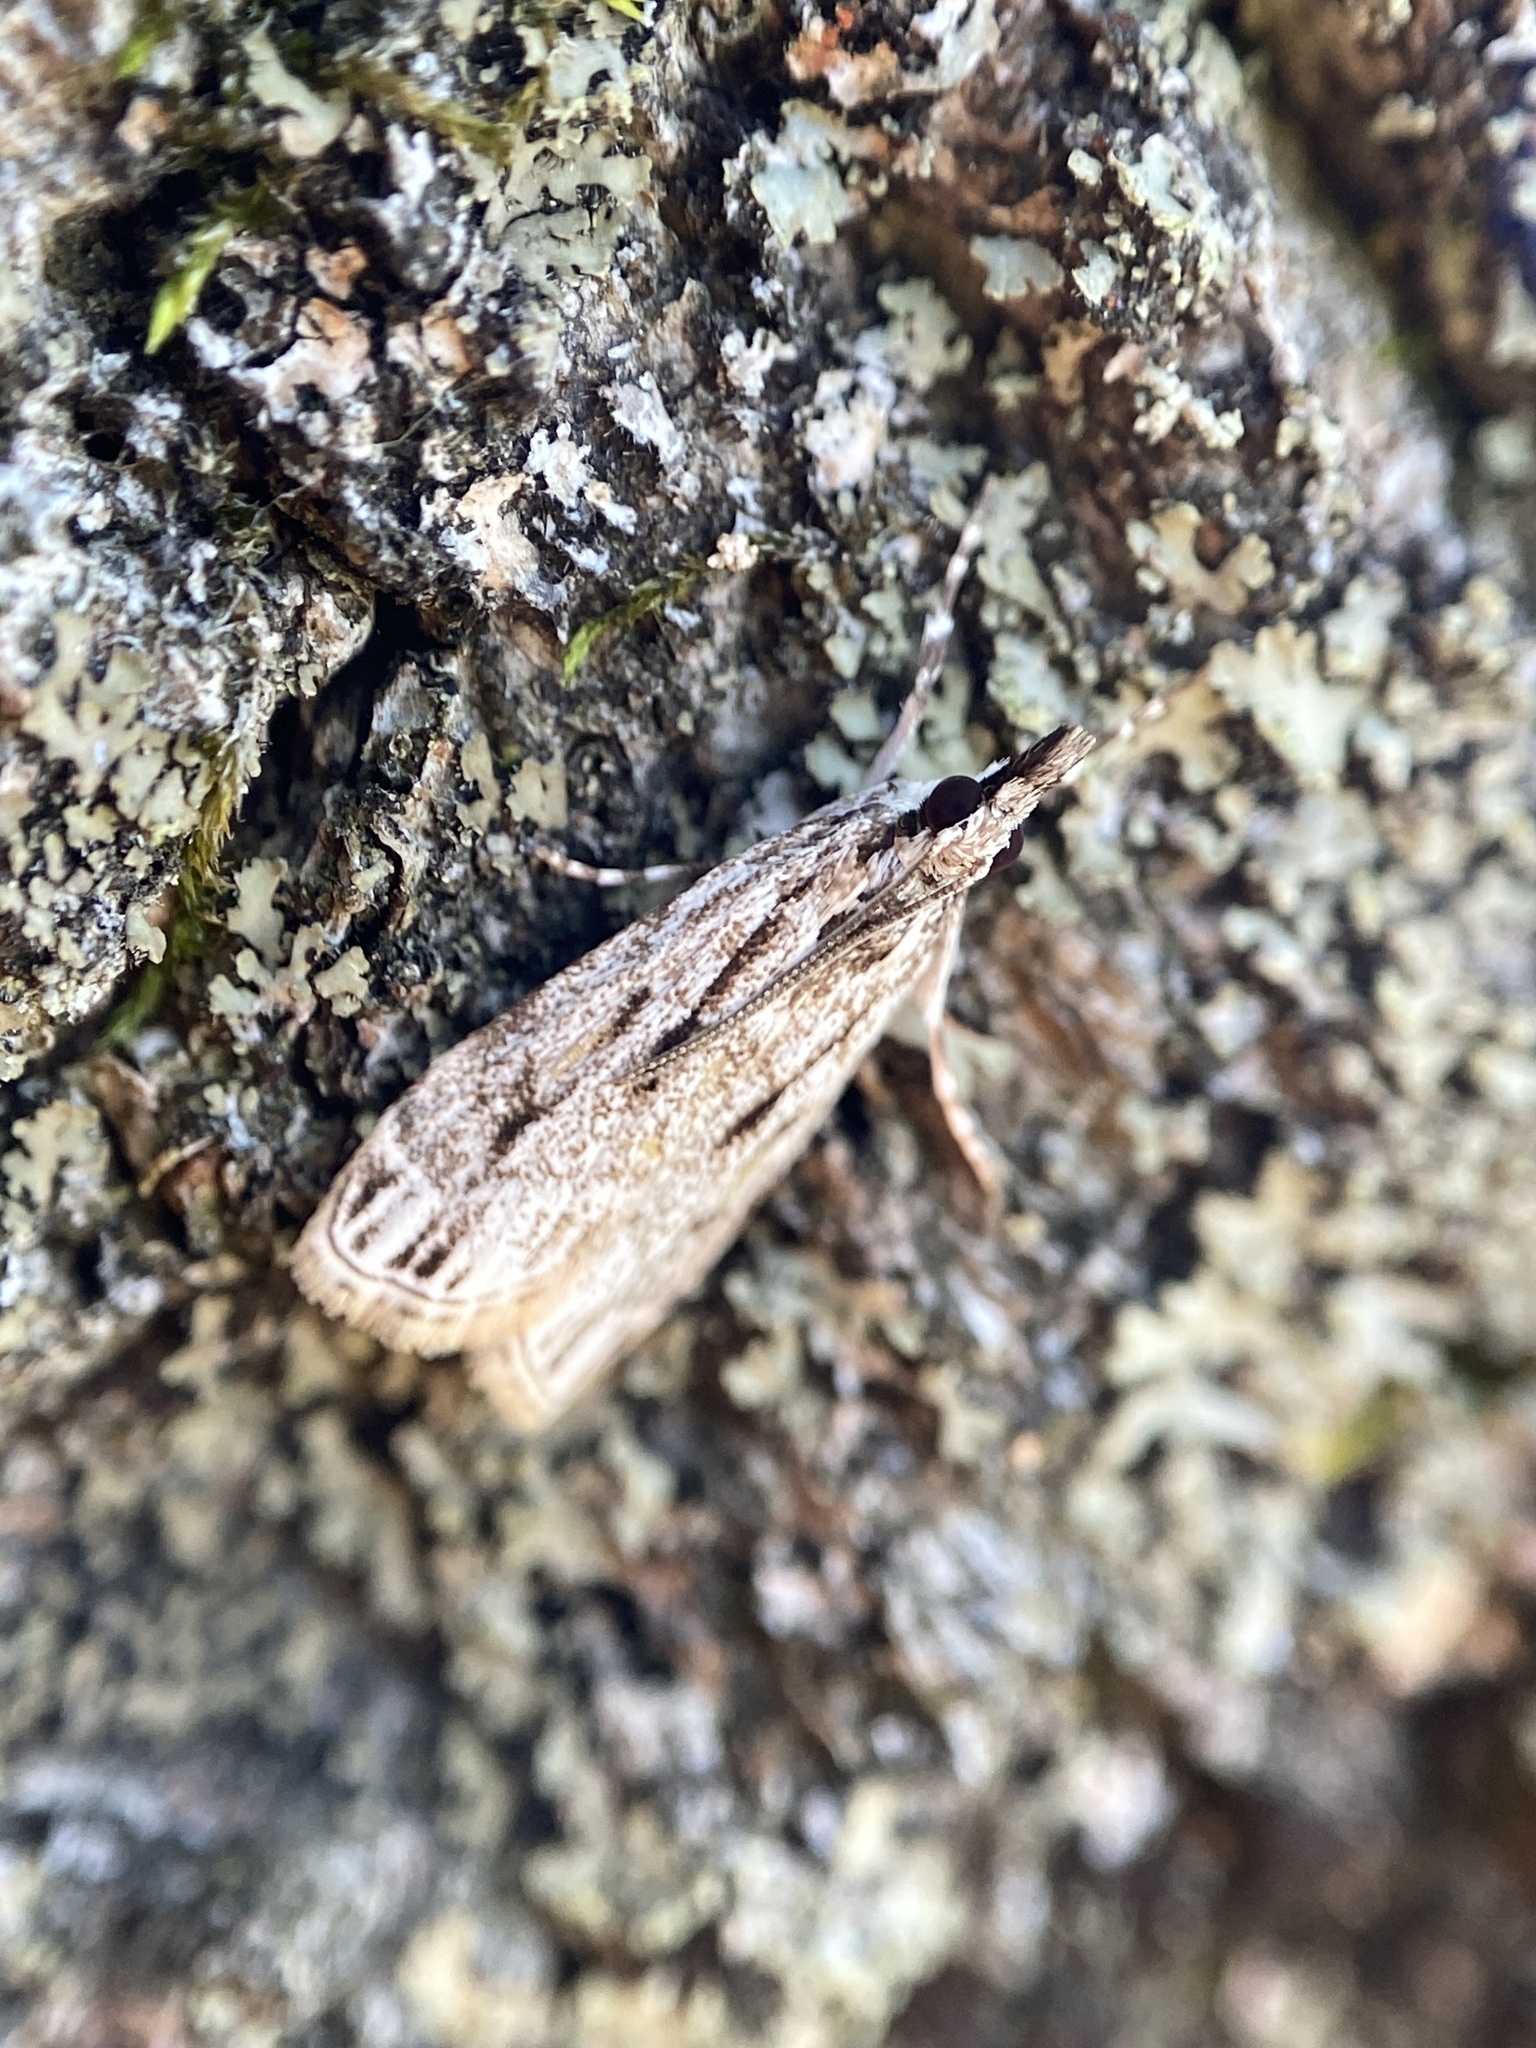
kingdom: Animalia
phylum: Arthropoda
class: Insecta
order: Lepidoptera
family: Crambidae
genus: Eudonia
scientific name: Eudonia strigalis
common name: Striped eudonia moth
